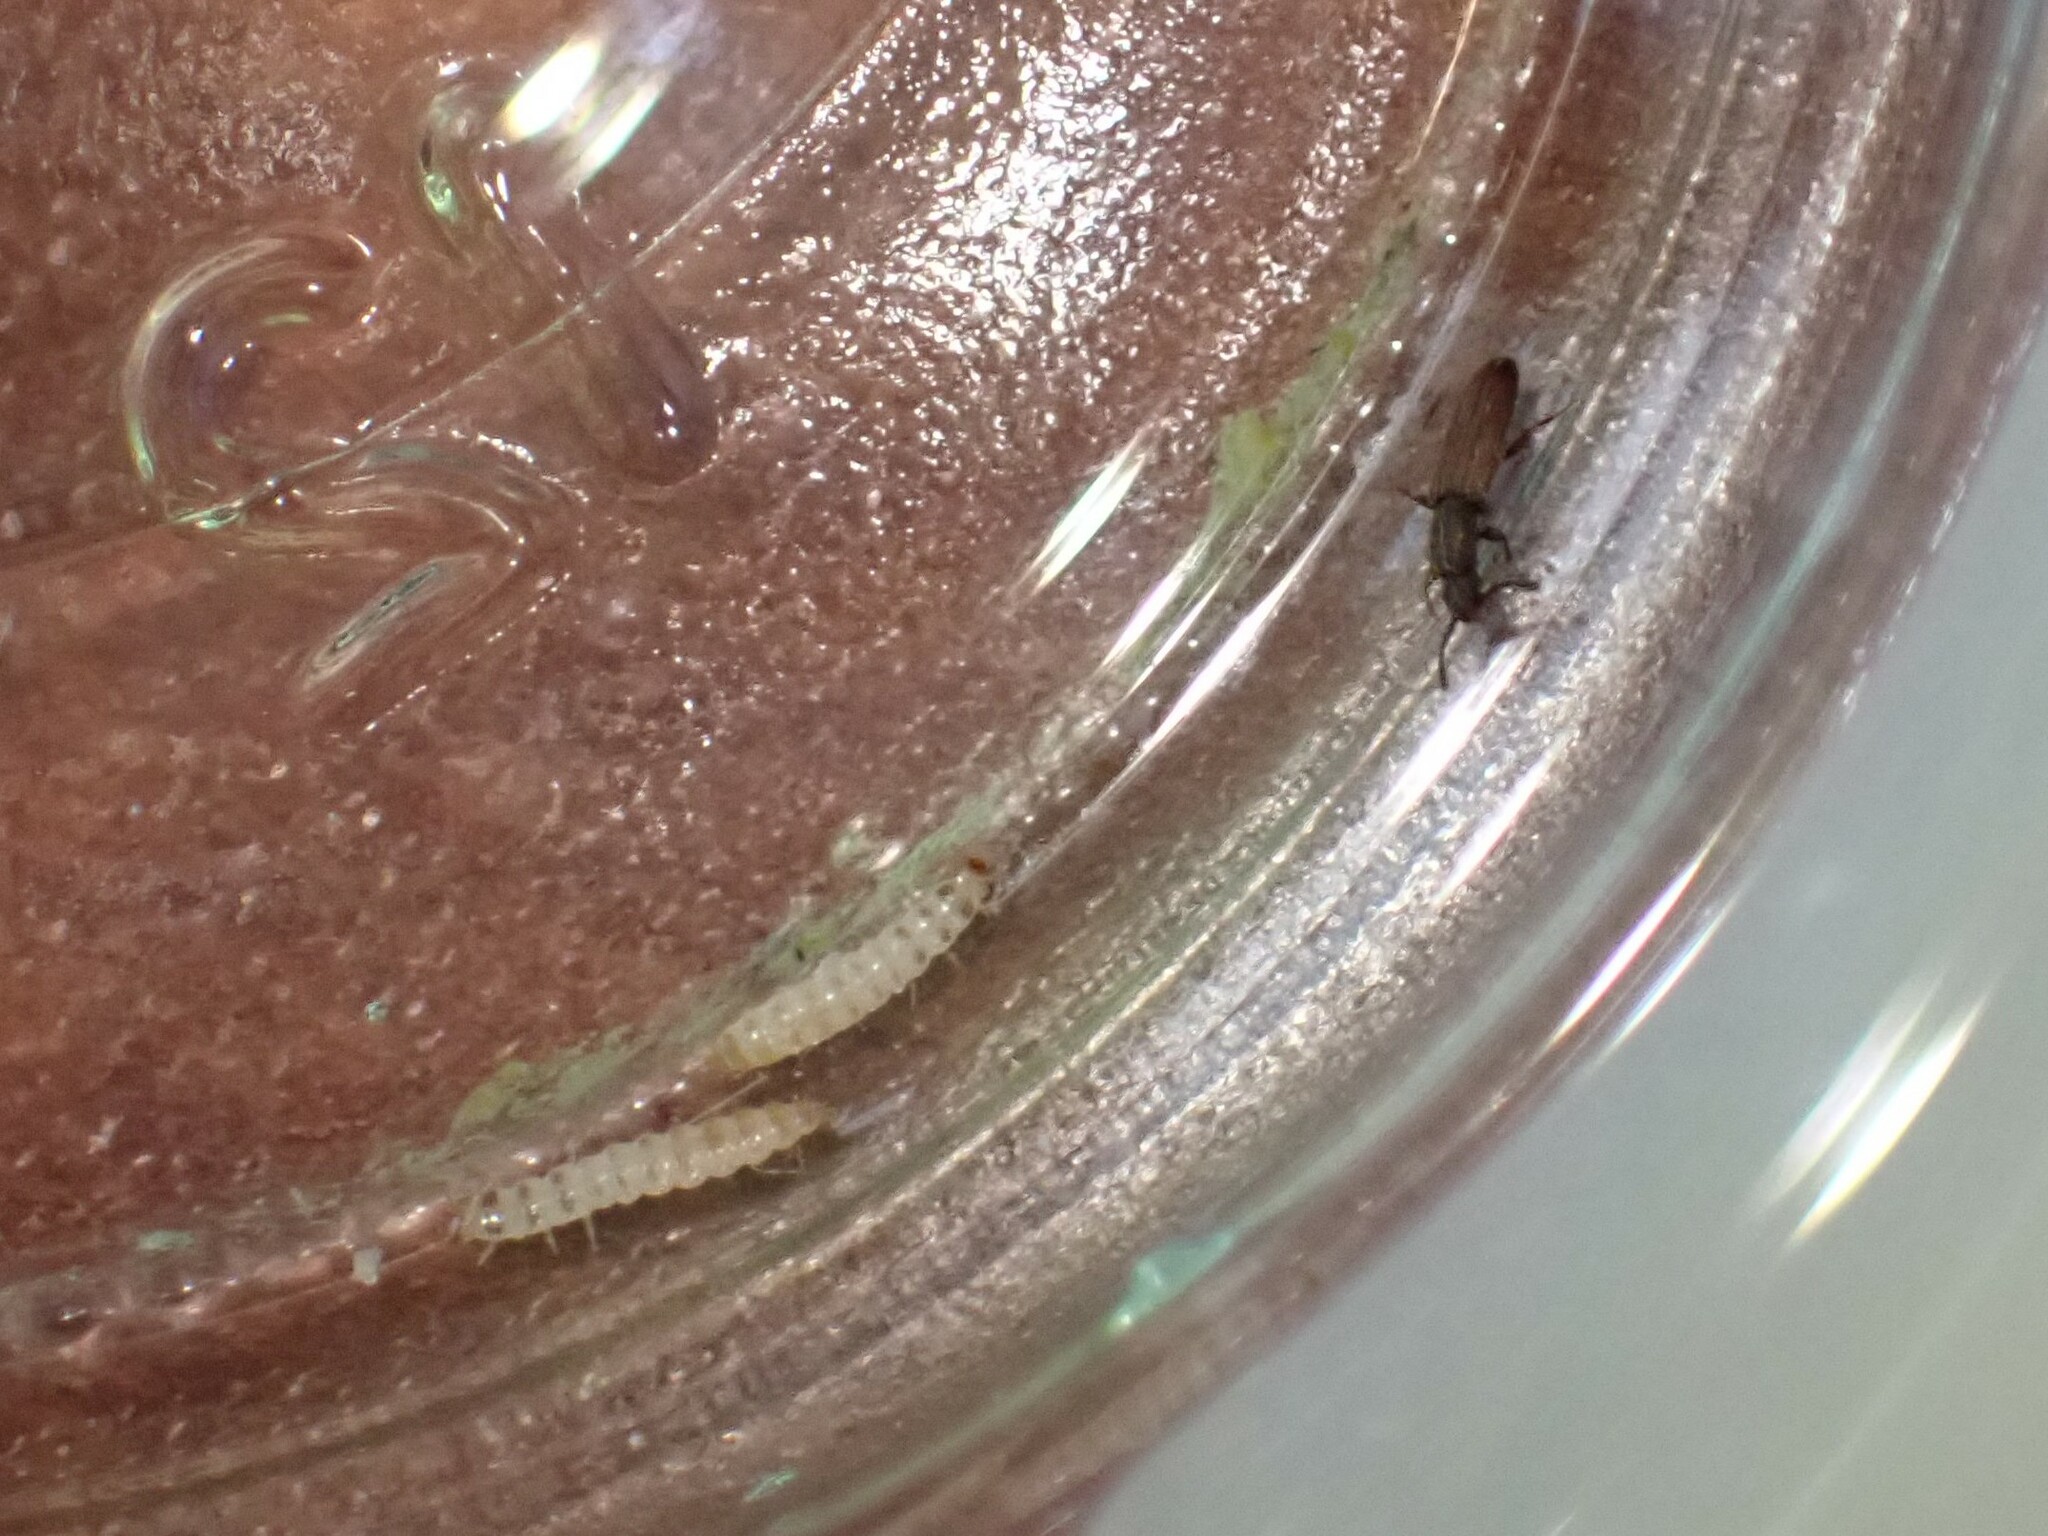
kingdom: Animalia
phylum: Arthropoda
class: Insecta
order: Coleoptera
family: Silvanidae
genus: Oryzaephilus
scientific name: Oryzaephilus surinamensis
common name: Sawtoothed grain beetle
